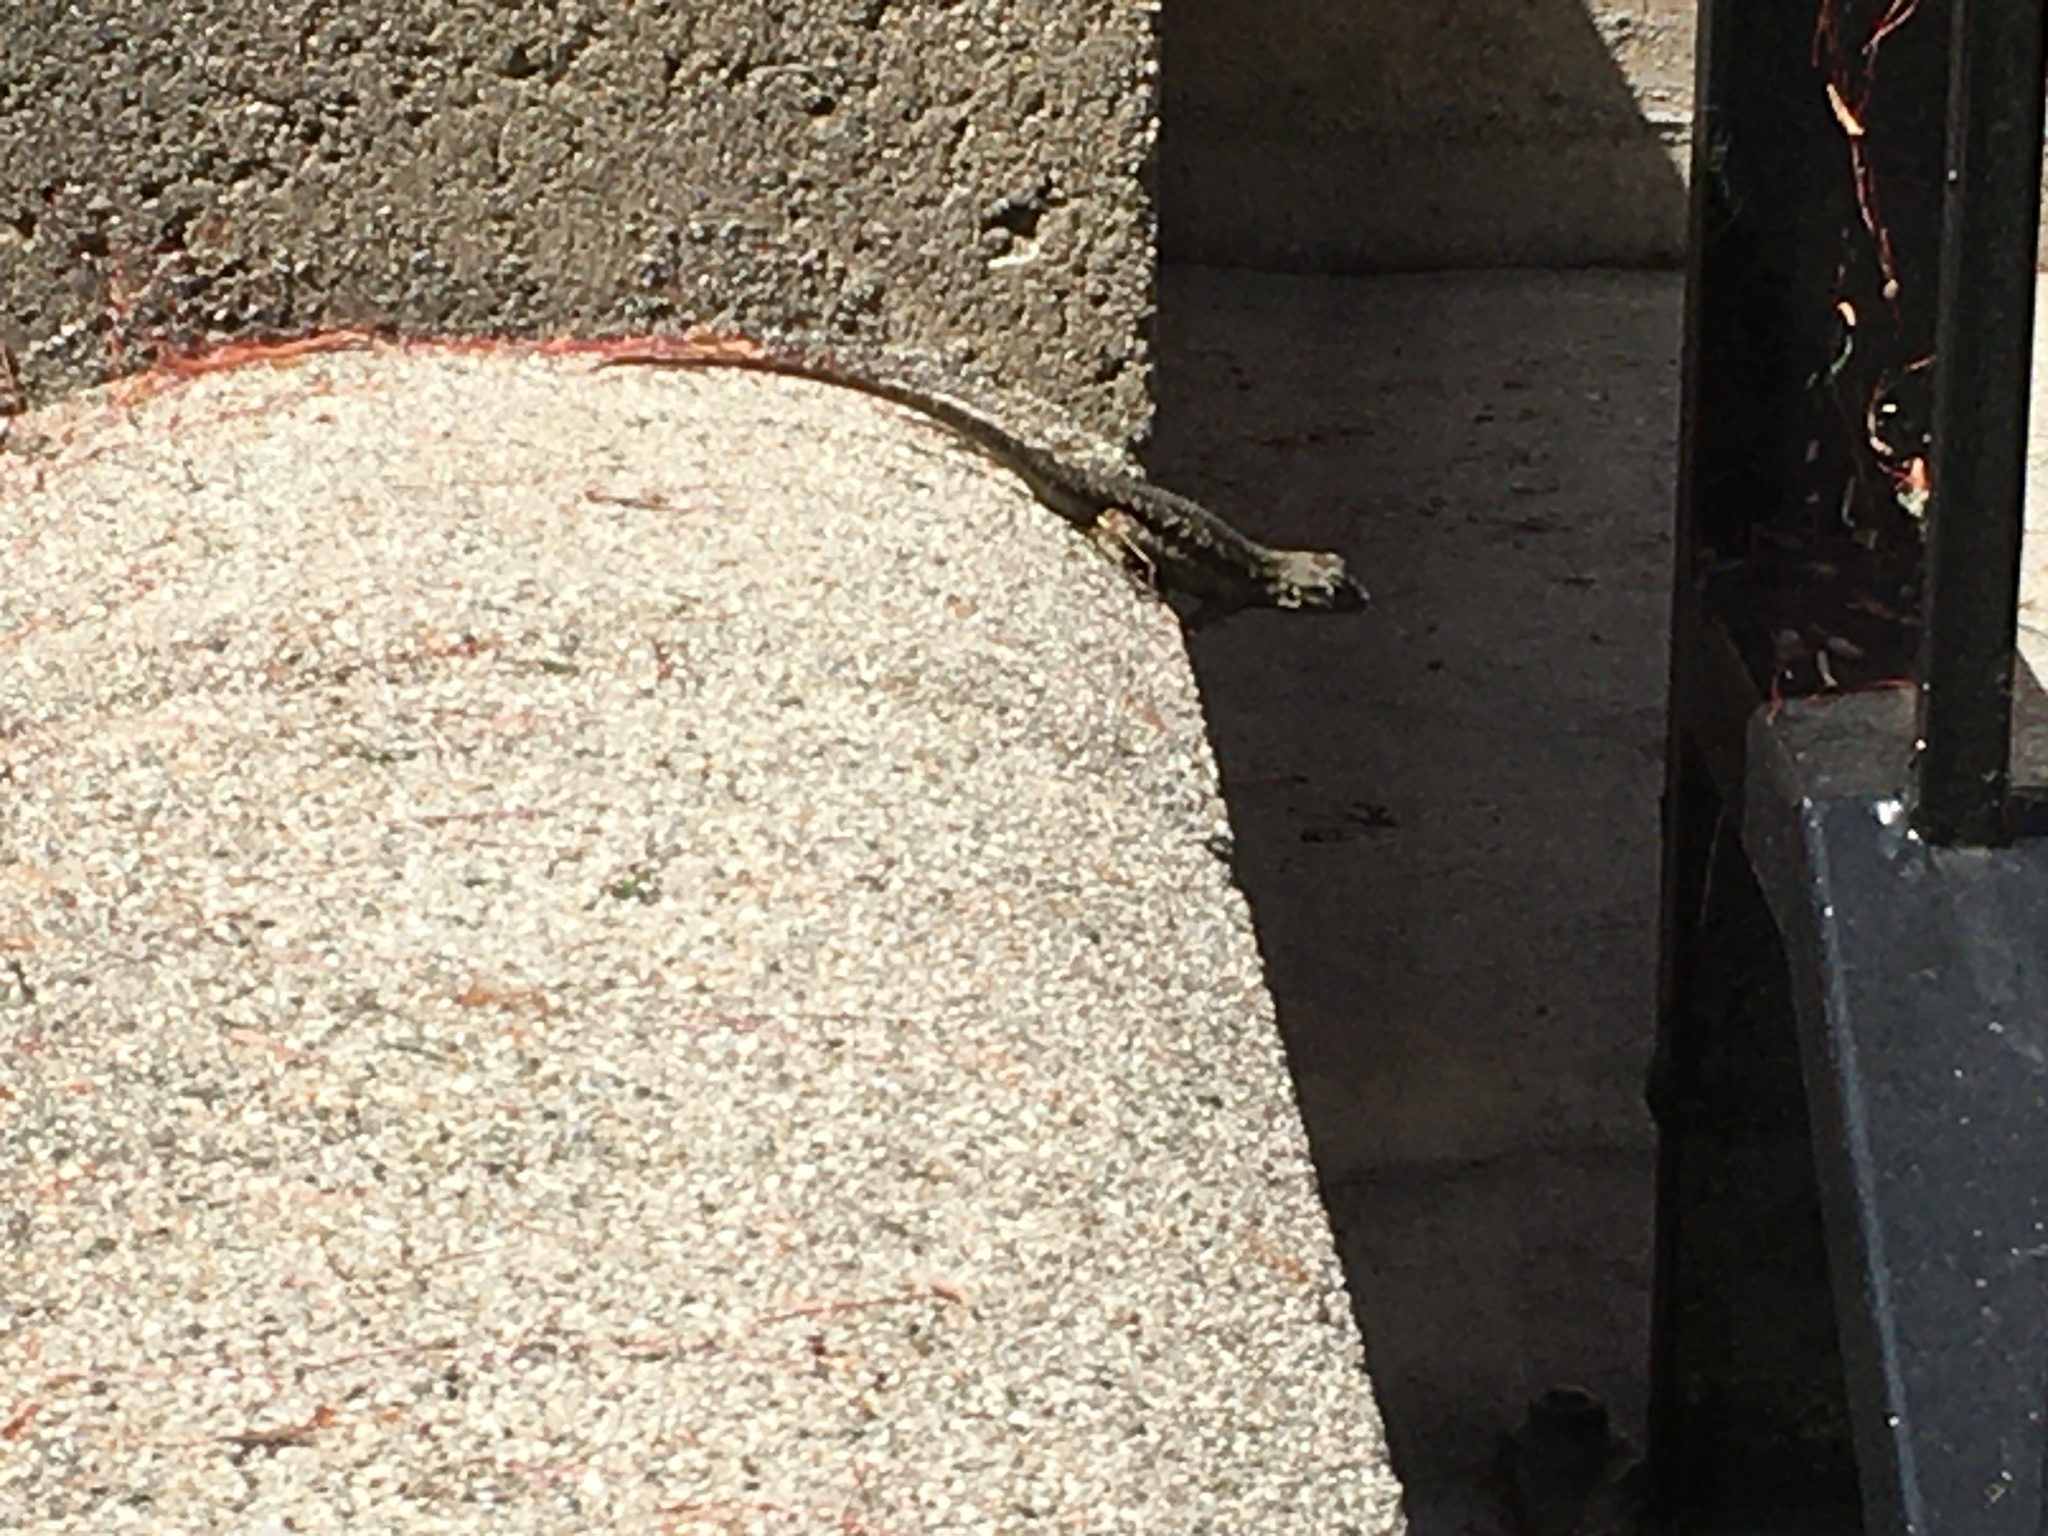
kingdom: Animalia
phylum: Chordata
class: Squamata
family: Phrynosomatidae
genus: Sceloporus
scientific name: Sceloporus occidentalis
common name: Western fence lizard
